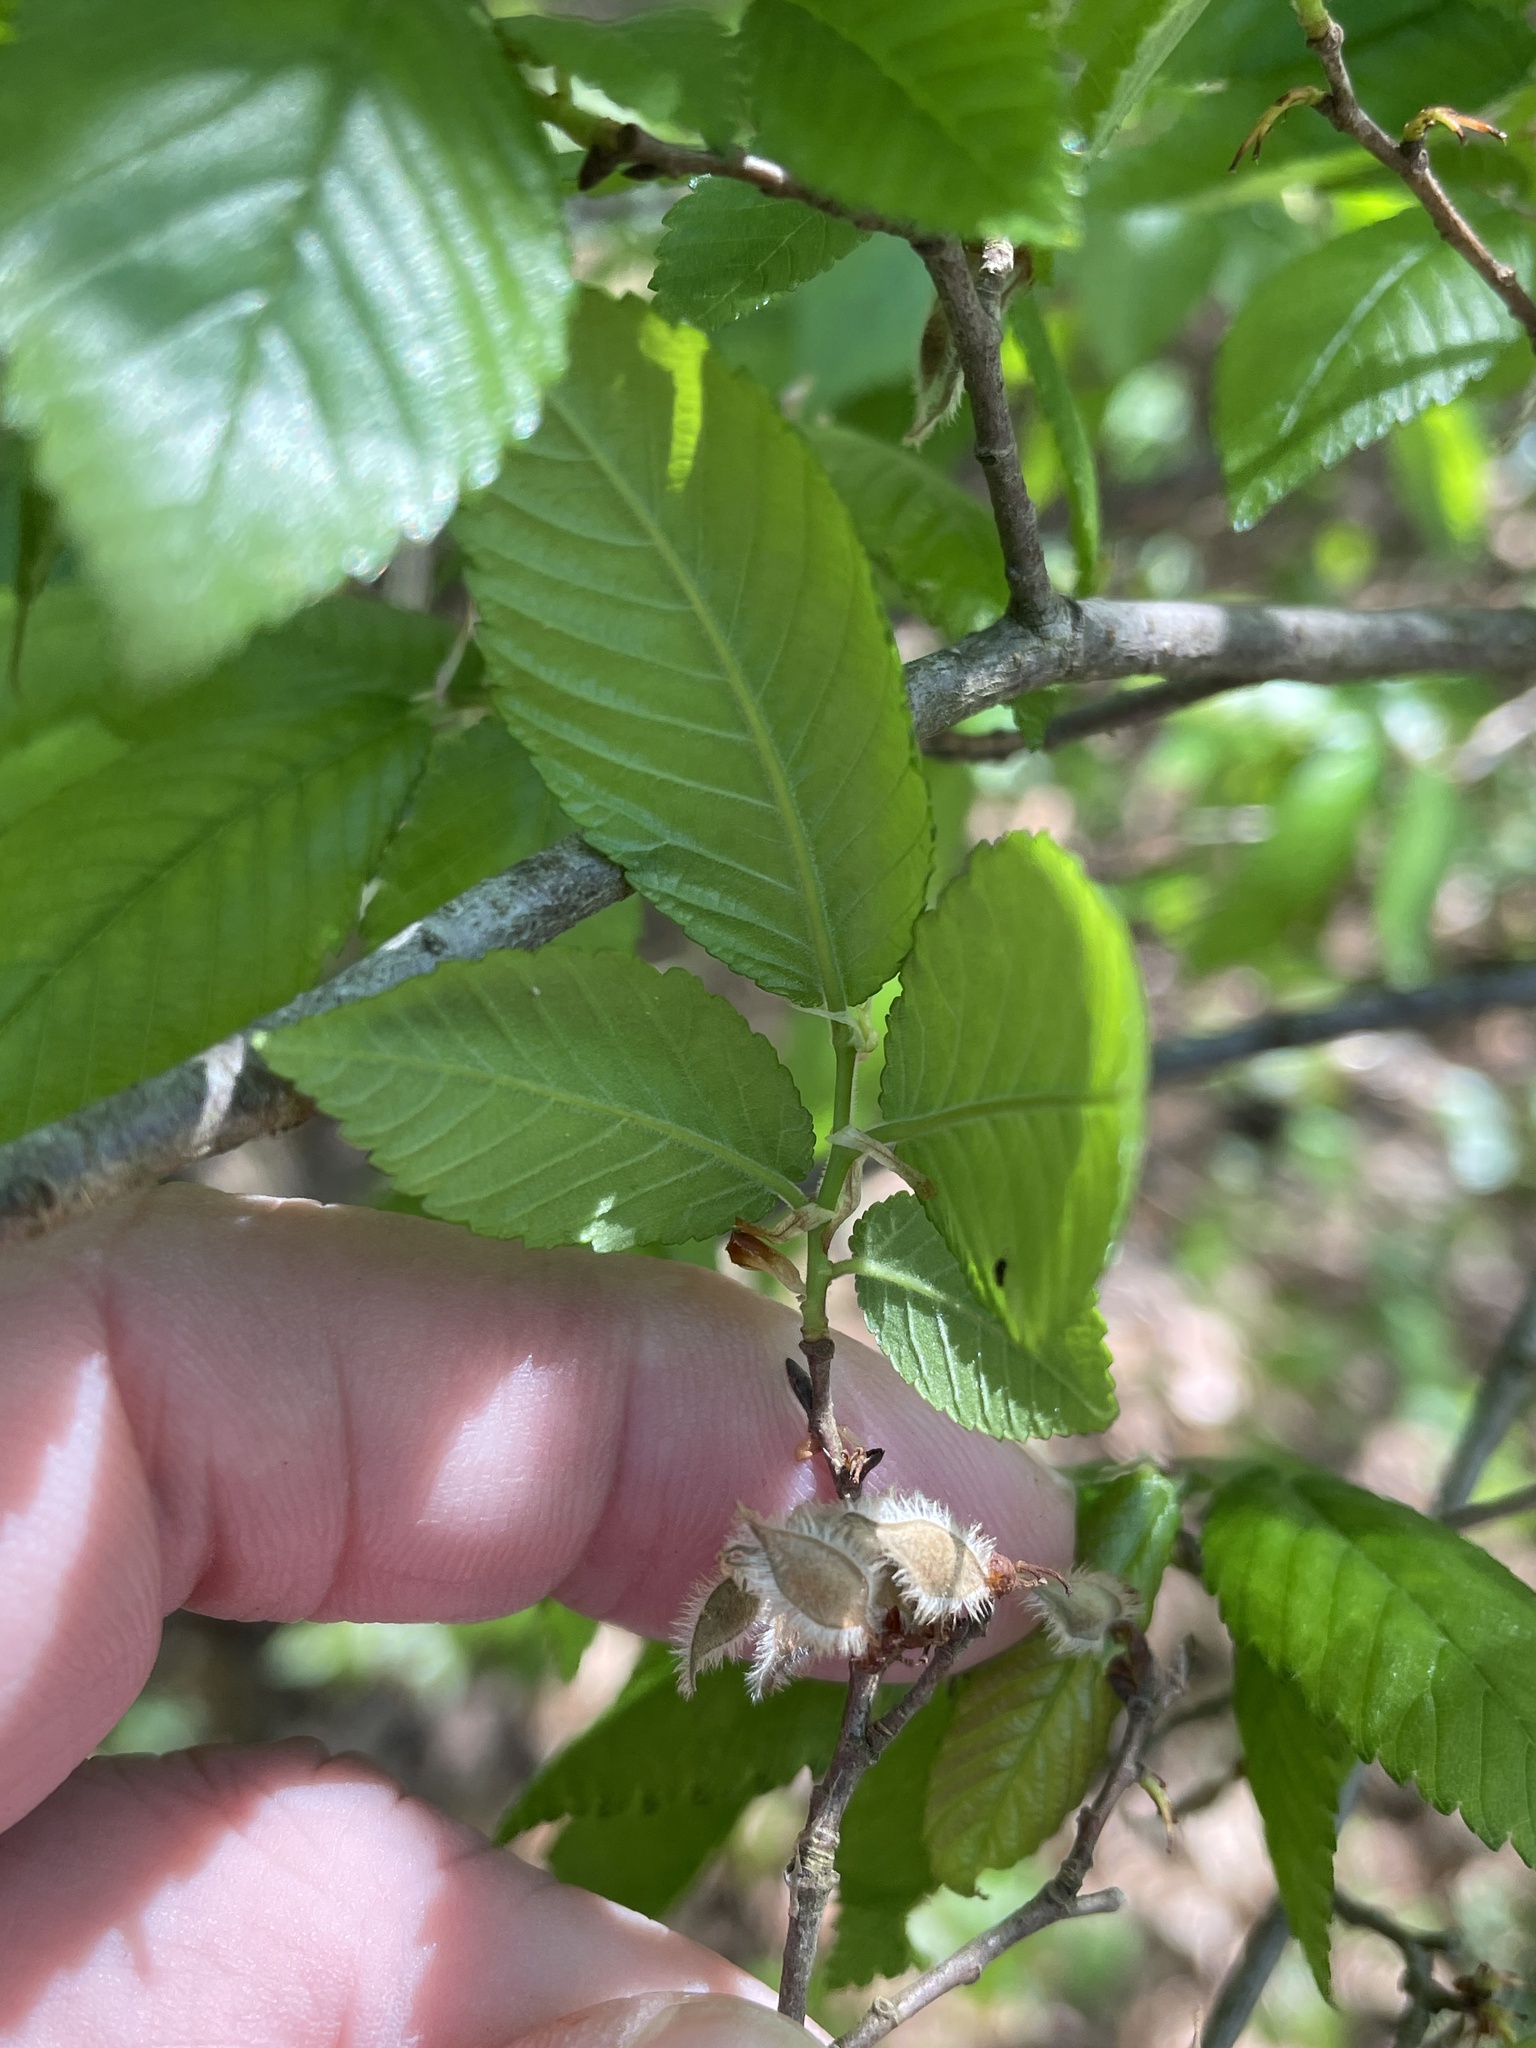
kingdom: Plantae
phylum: Tracheophyta
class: Magnoliopsida
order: Rosales
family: Ulmaceae
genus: Ulmus
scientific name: Ulmus alata
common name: Winged elm
